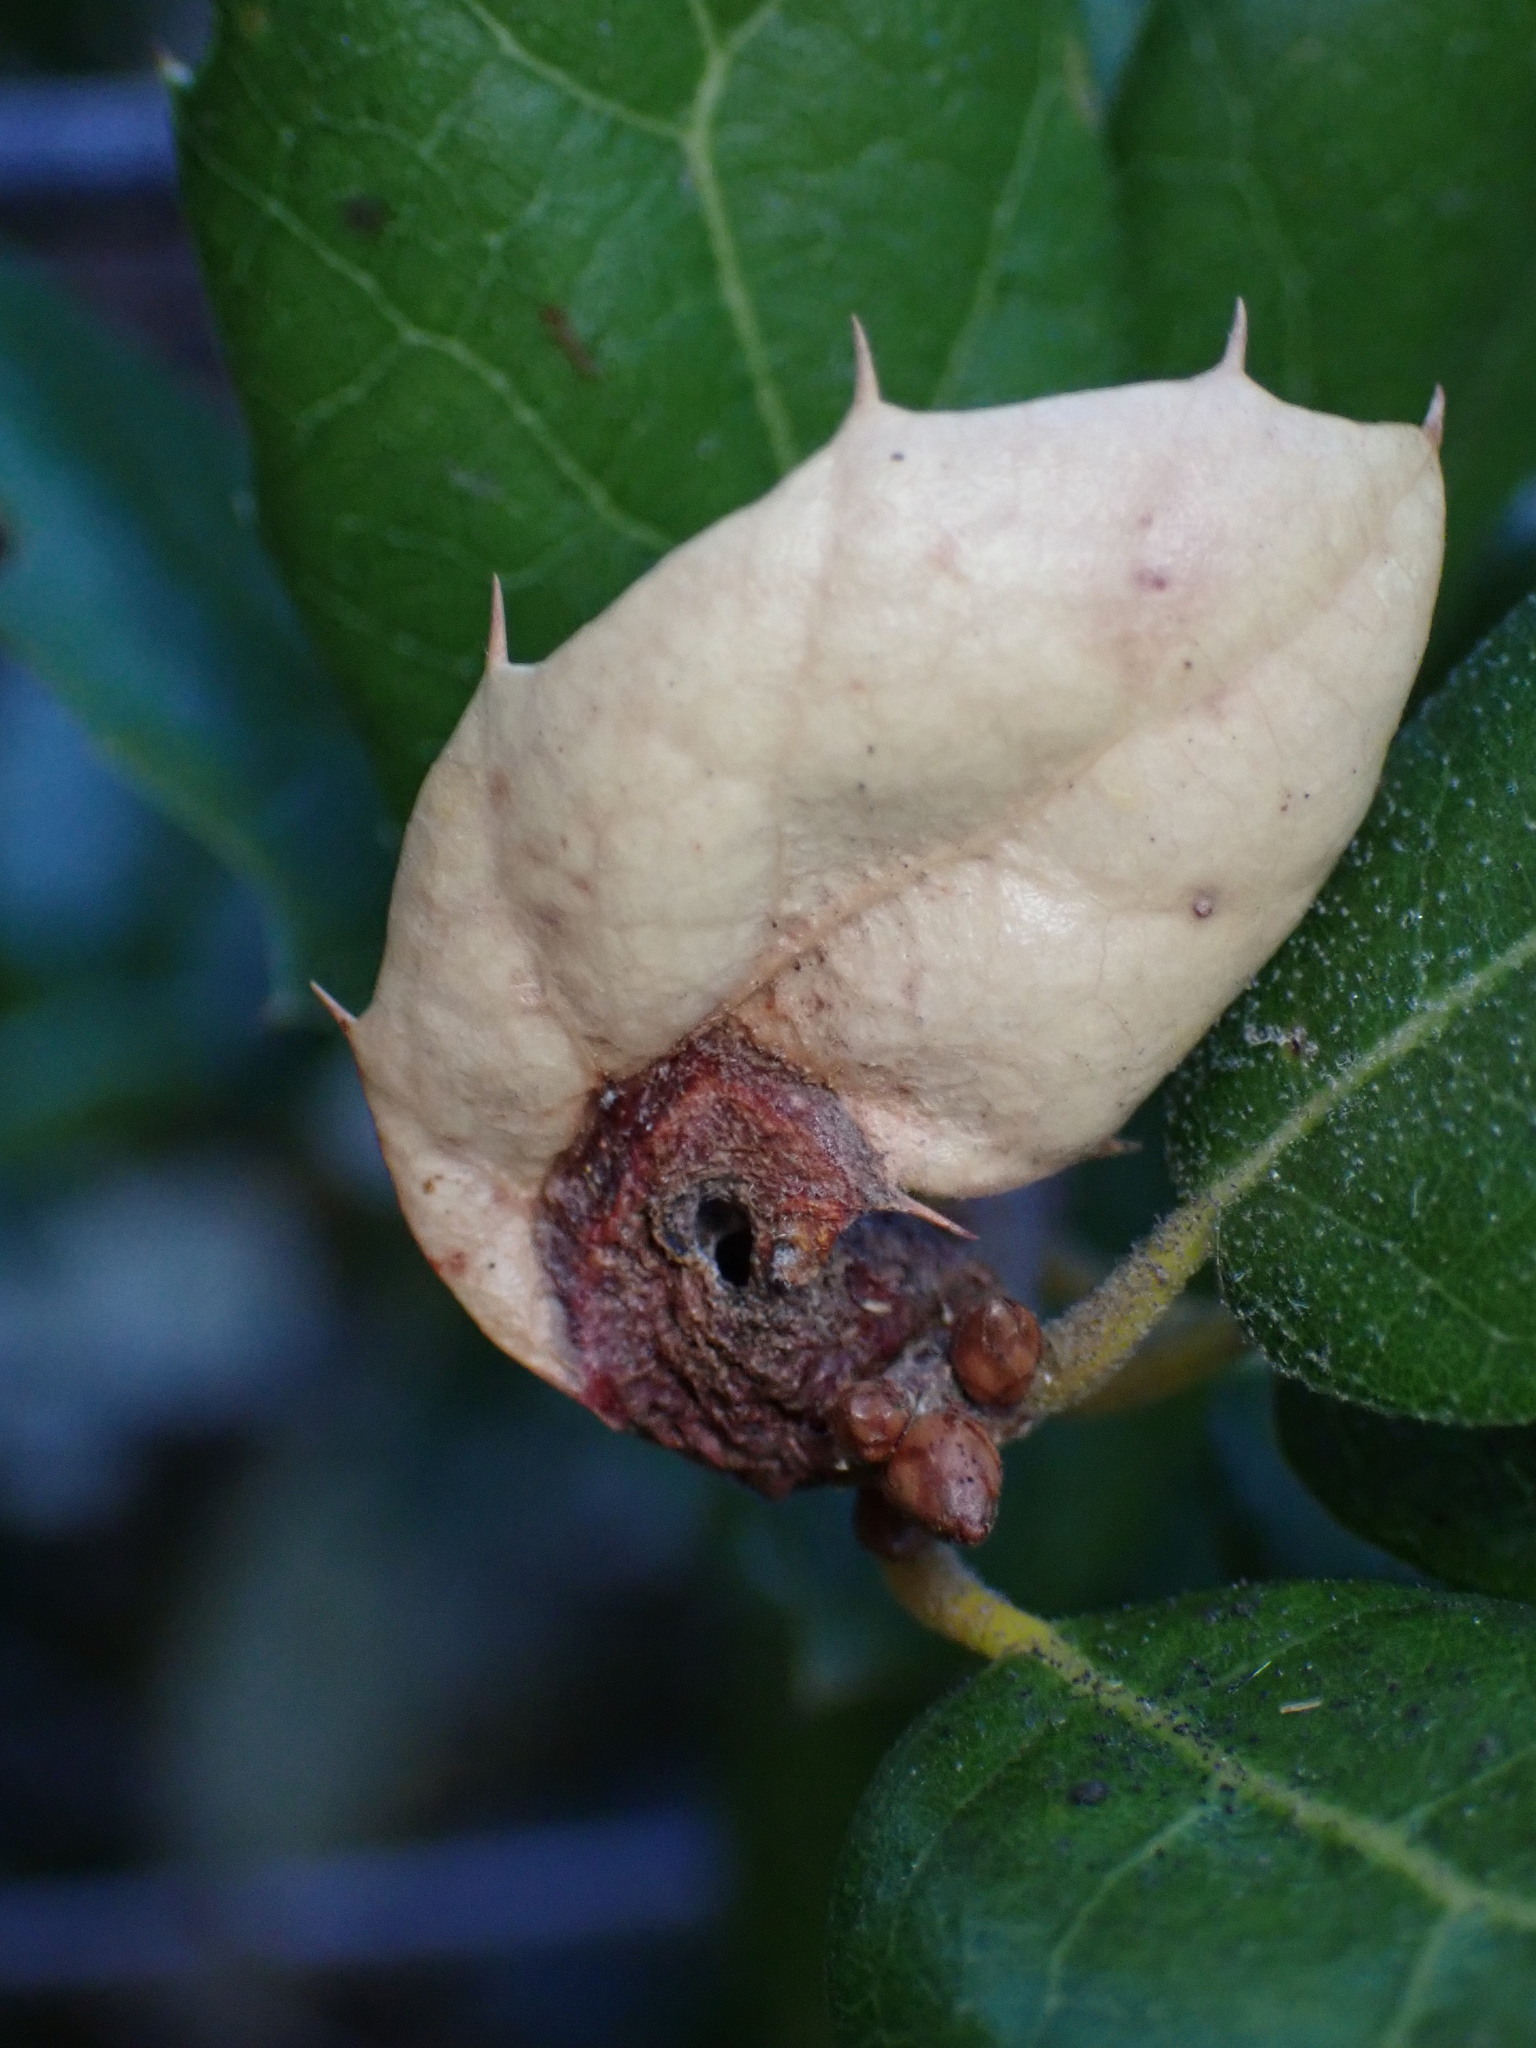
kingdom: Animalia
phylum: Arthropoda
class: Insecta
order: Hymenoptera
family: Cynipidae
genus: Melikaiella
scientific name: Melikaiella
